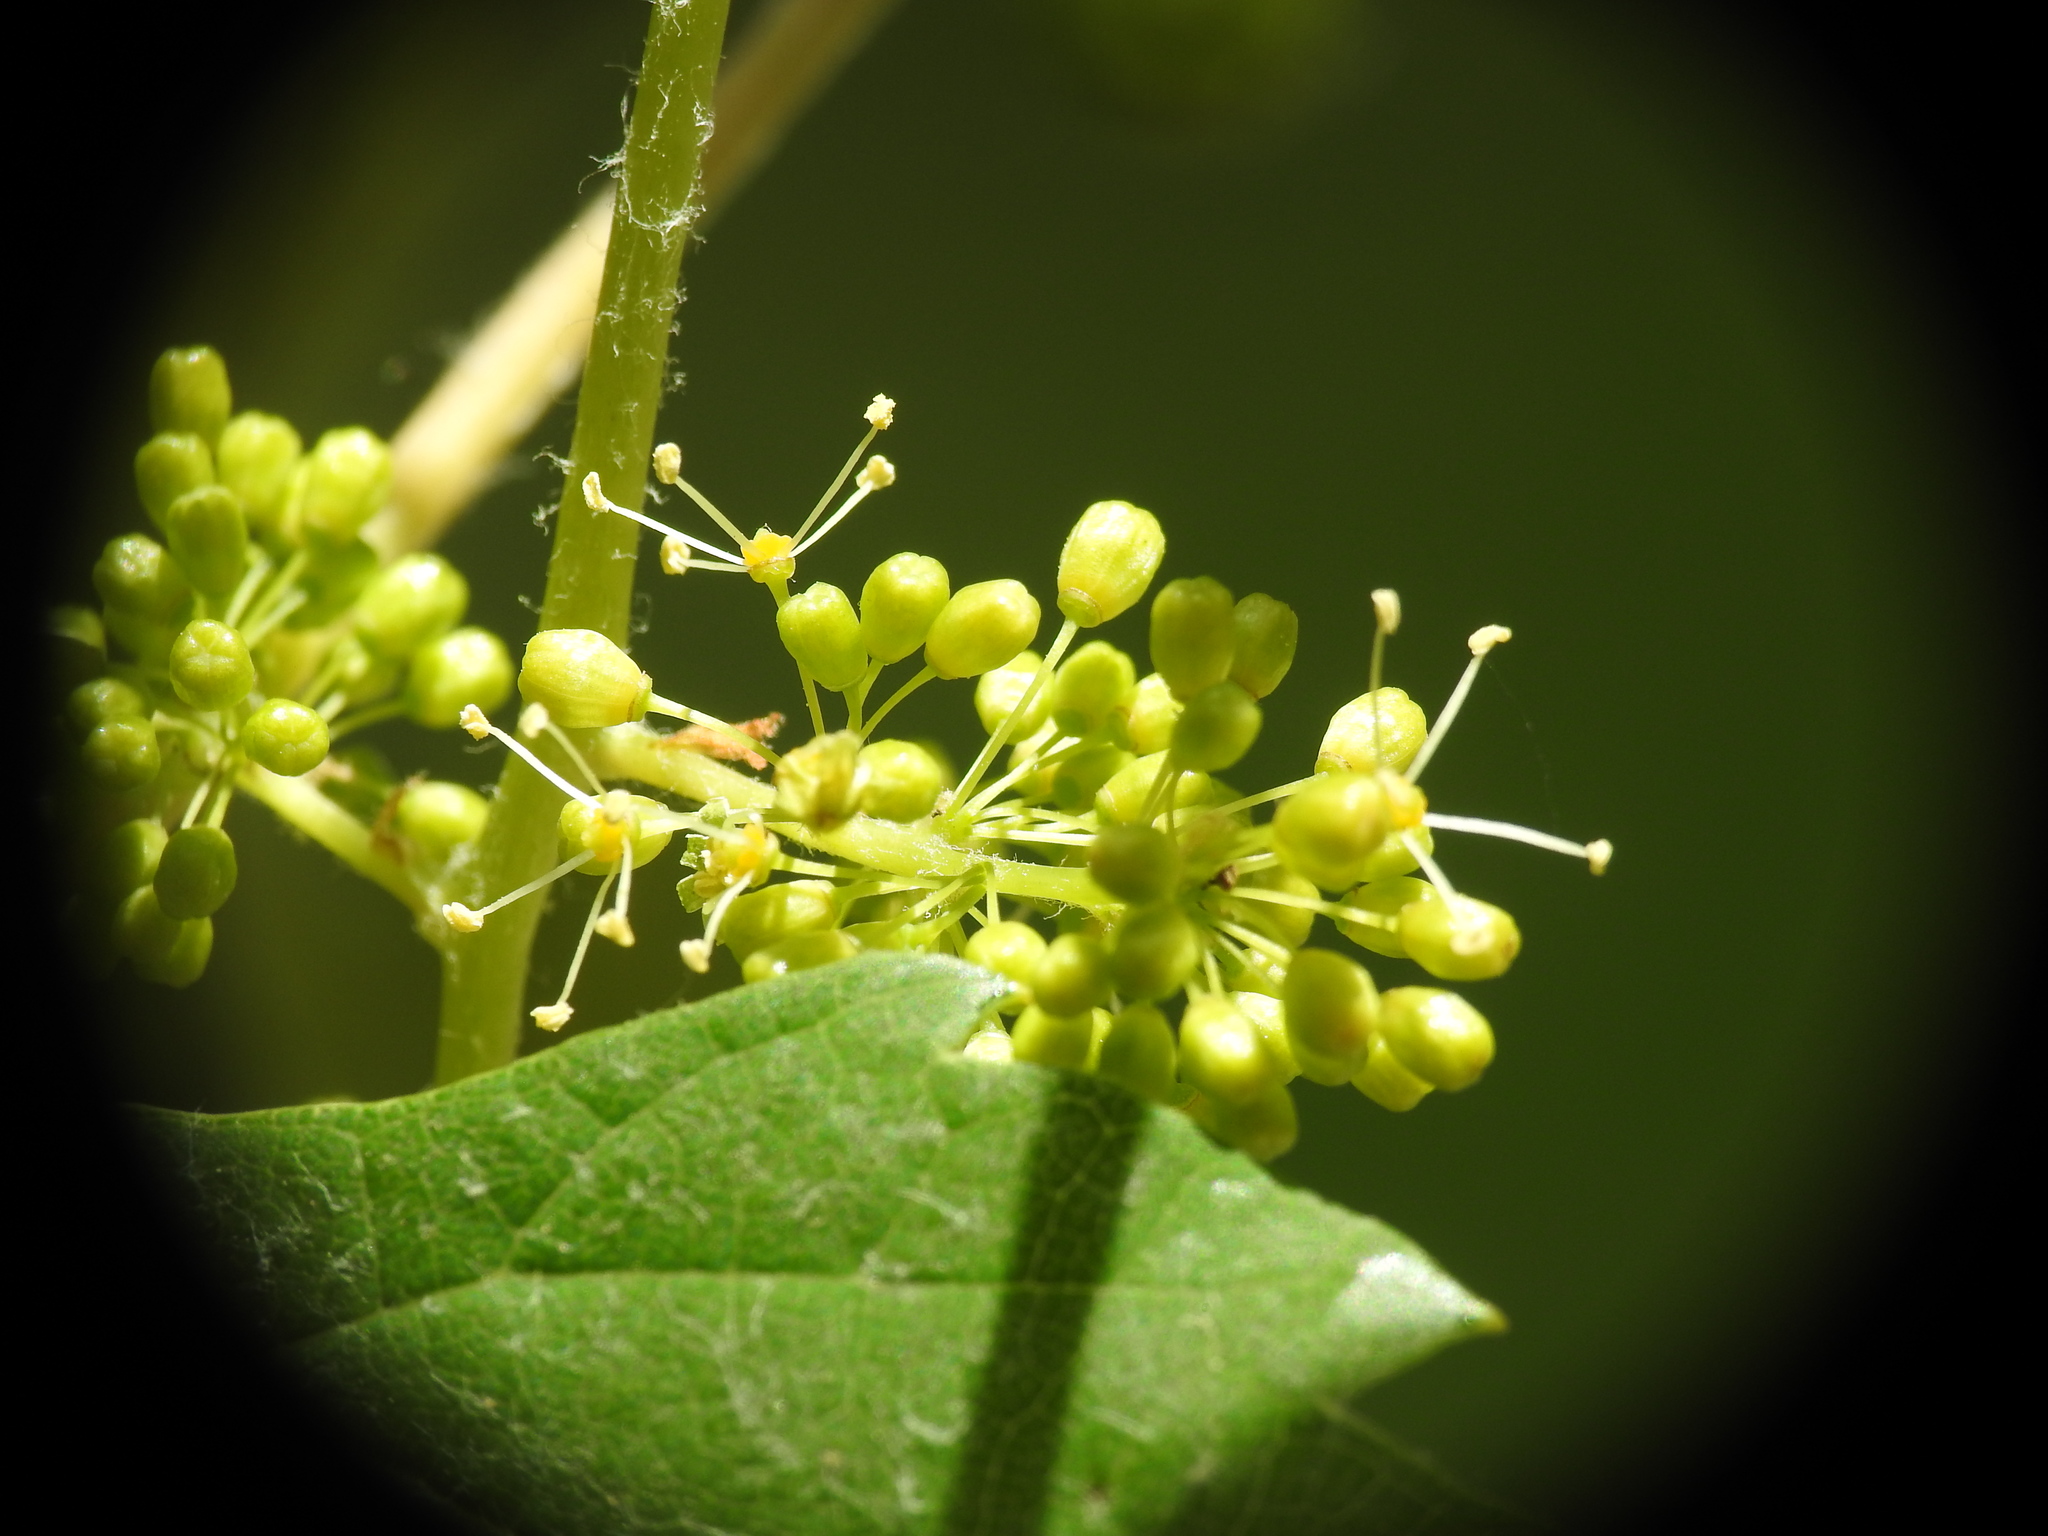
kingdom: Plantae
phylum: Tracheophyta
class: Magnoliopsida
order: Vitales
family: Vitaceae
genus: Vitis
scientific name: Vitis gmelinii
